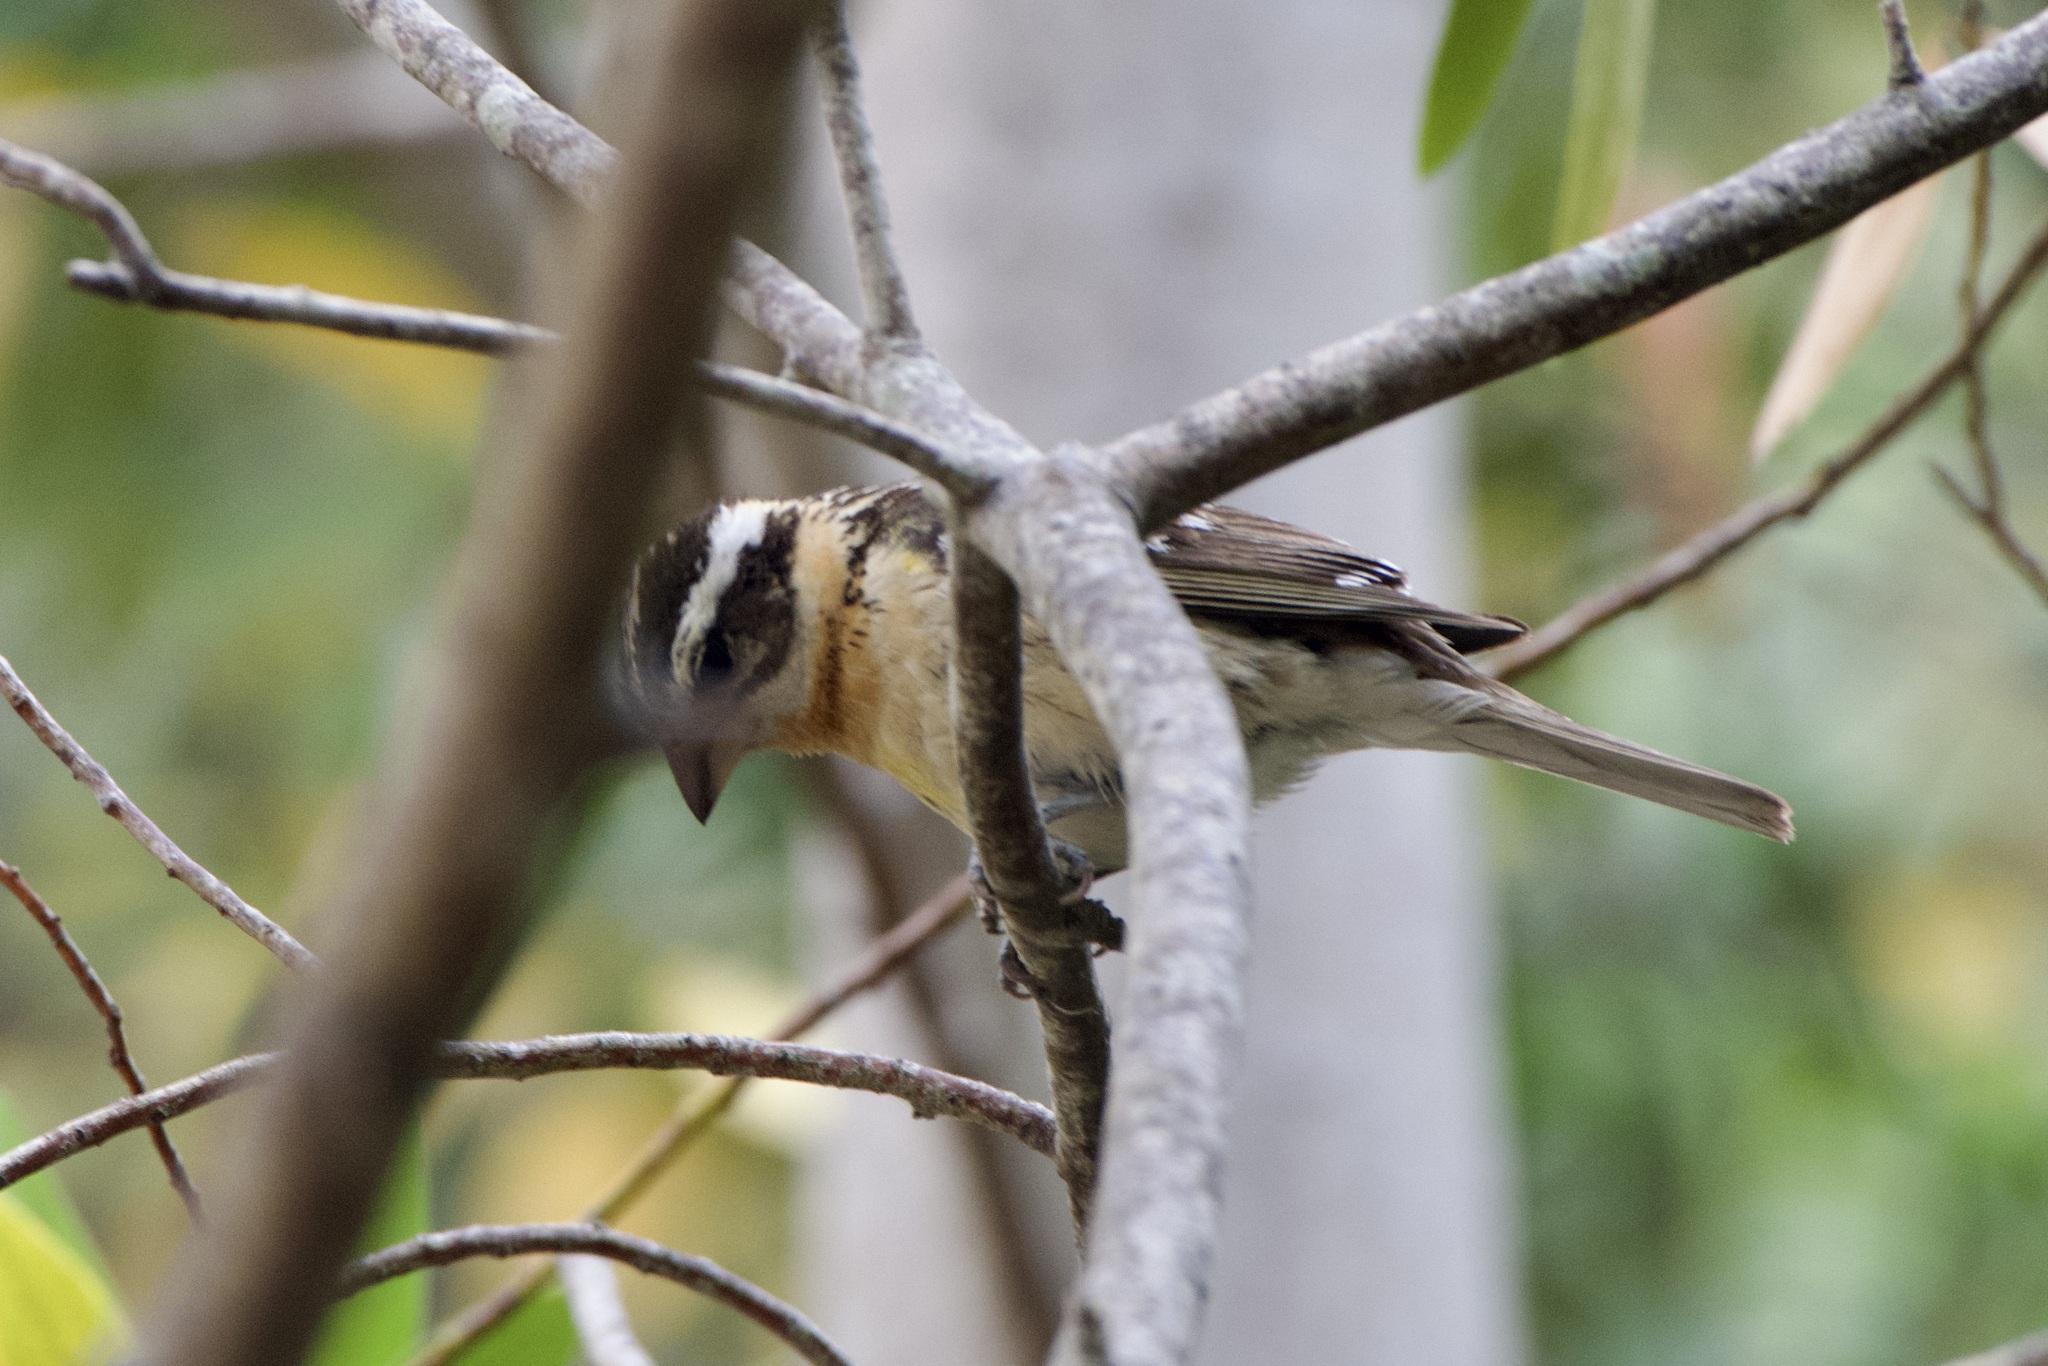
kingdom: Animalia
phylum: Chordata
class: Aves
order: Passeriformes
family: Cardinalidae
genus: Pheucticus
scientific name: Pheucticus melanocephalus
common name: Black-headed grosbeak
